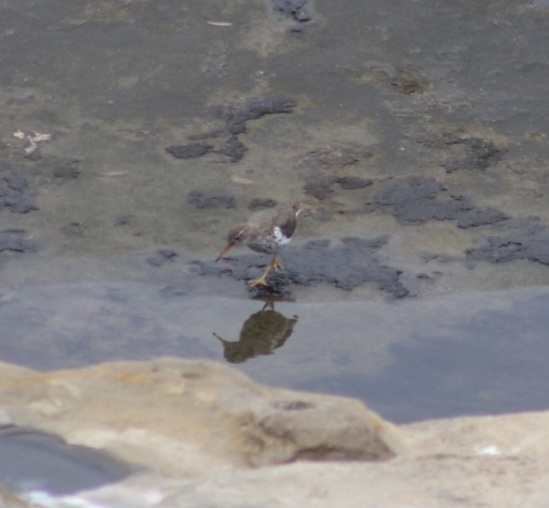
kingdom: Animalia
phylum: Chordata
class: Aves
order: Charadriiformes
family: Scolopacidae
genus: Actitis
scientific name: Actitis macularius
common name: Spotted sandpiper
